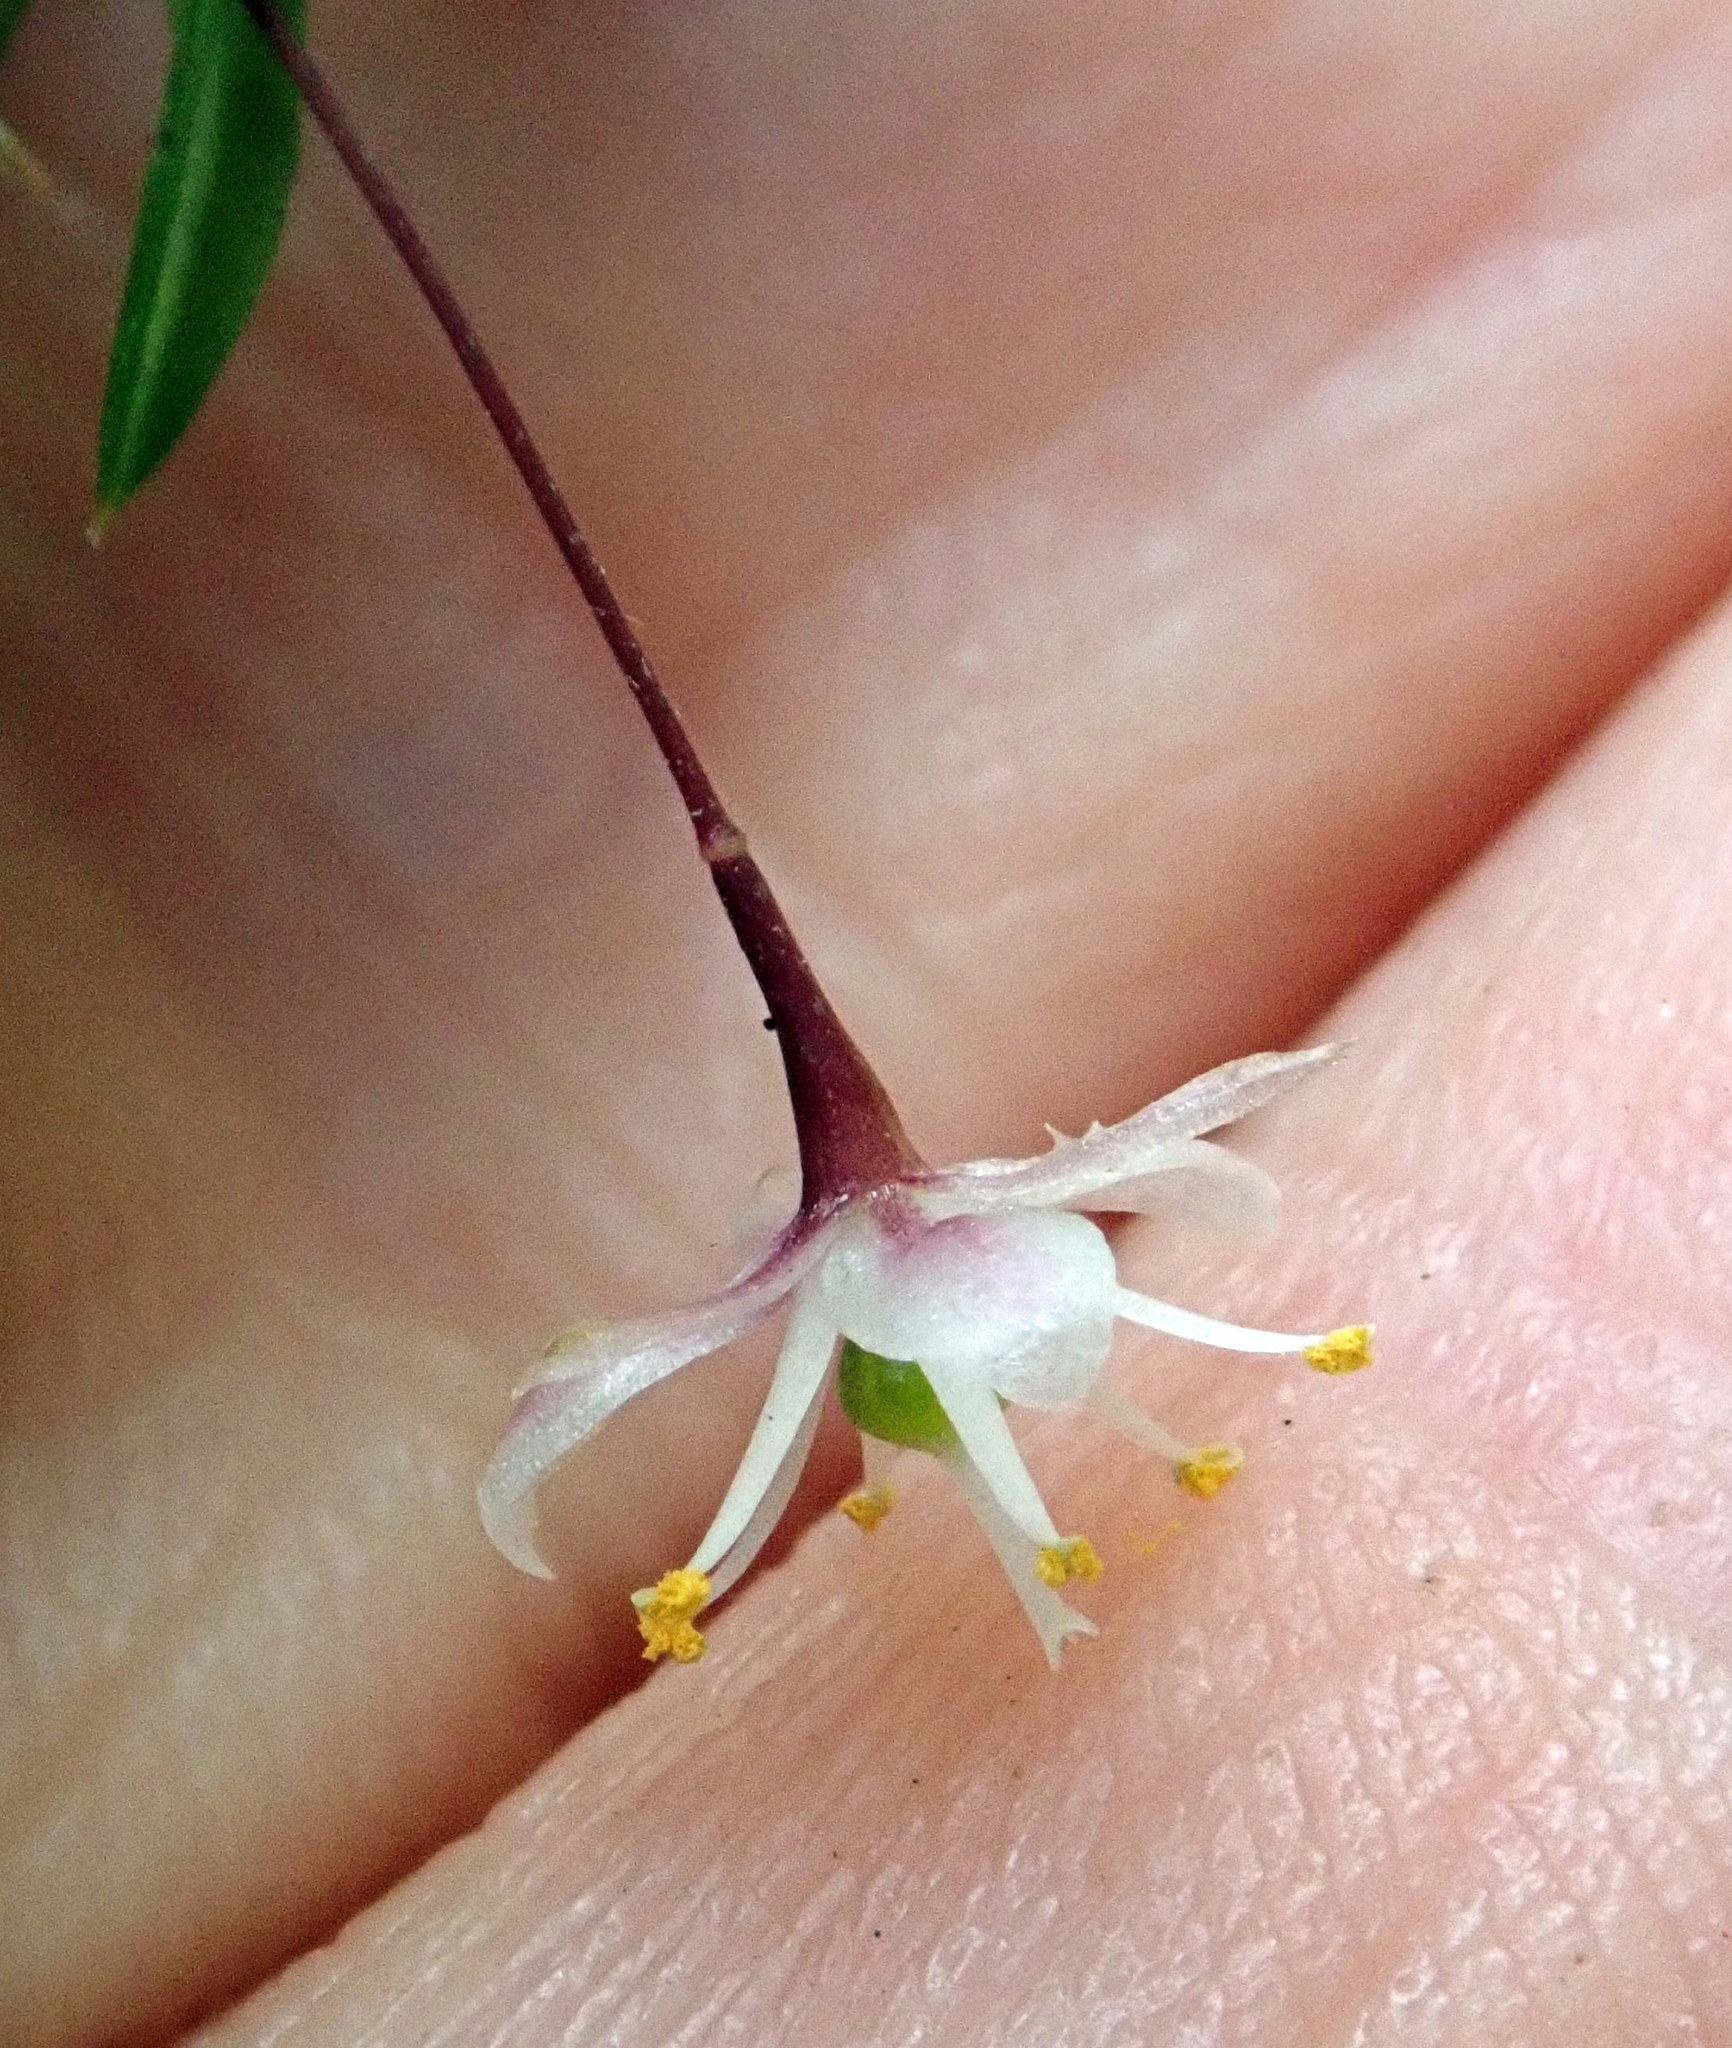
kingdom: Plantae
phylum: Tracheophyta
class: Liliopsida
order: Asparagales
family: Asparagaceae
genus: Asparagus
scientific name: Asparagus scandens
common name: Asparagus-fern
